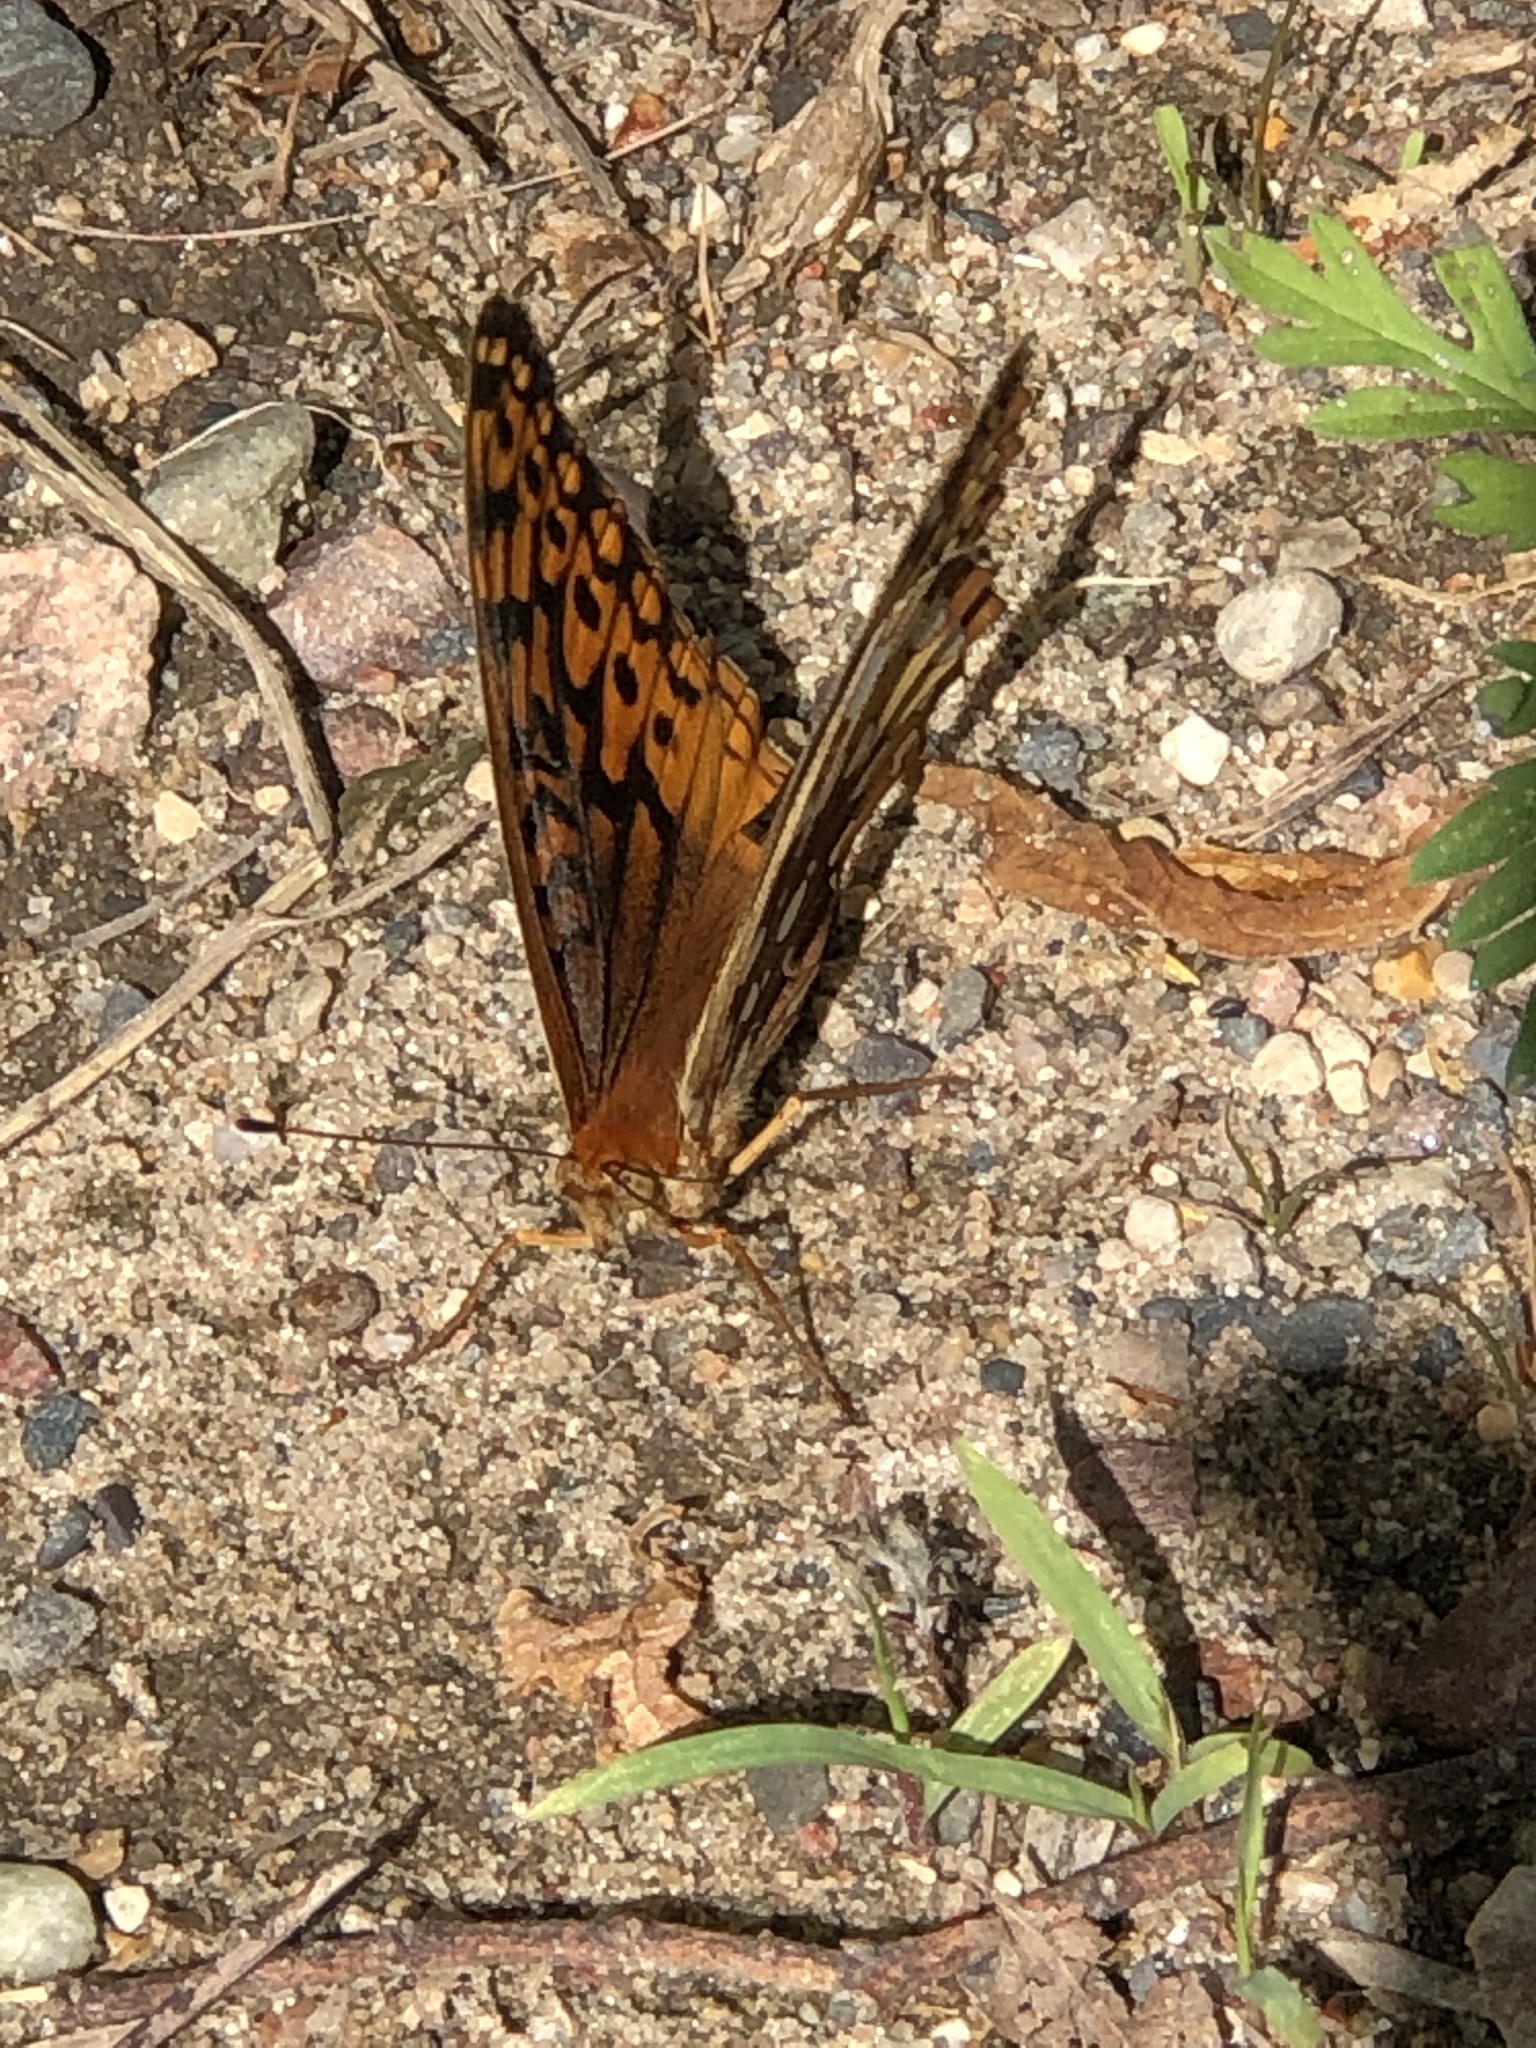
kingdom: Animalia
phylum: Arthropoda
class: Insecta
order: Lepidoptera
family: Nymphalidae
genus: Speyeria
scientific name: Speyeria cybele
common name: Great spangled fritillary
